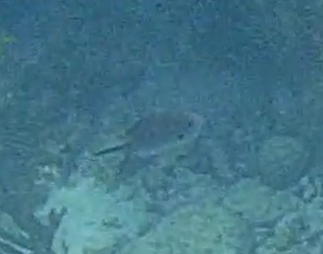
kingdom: Animalia
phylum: Chordata
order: Perciformes
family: Pomacentridae
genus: Chromis
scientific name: Chromis multilineata
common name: Brown chromis
